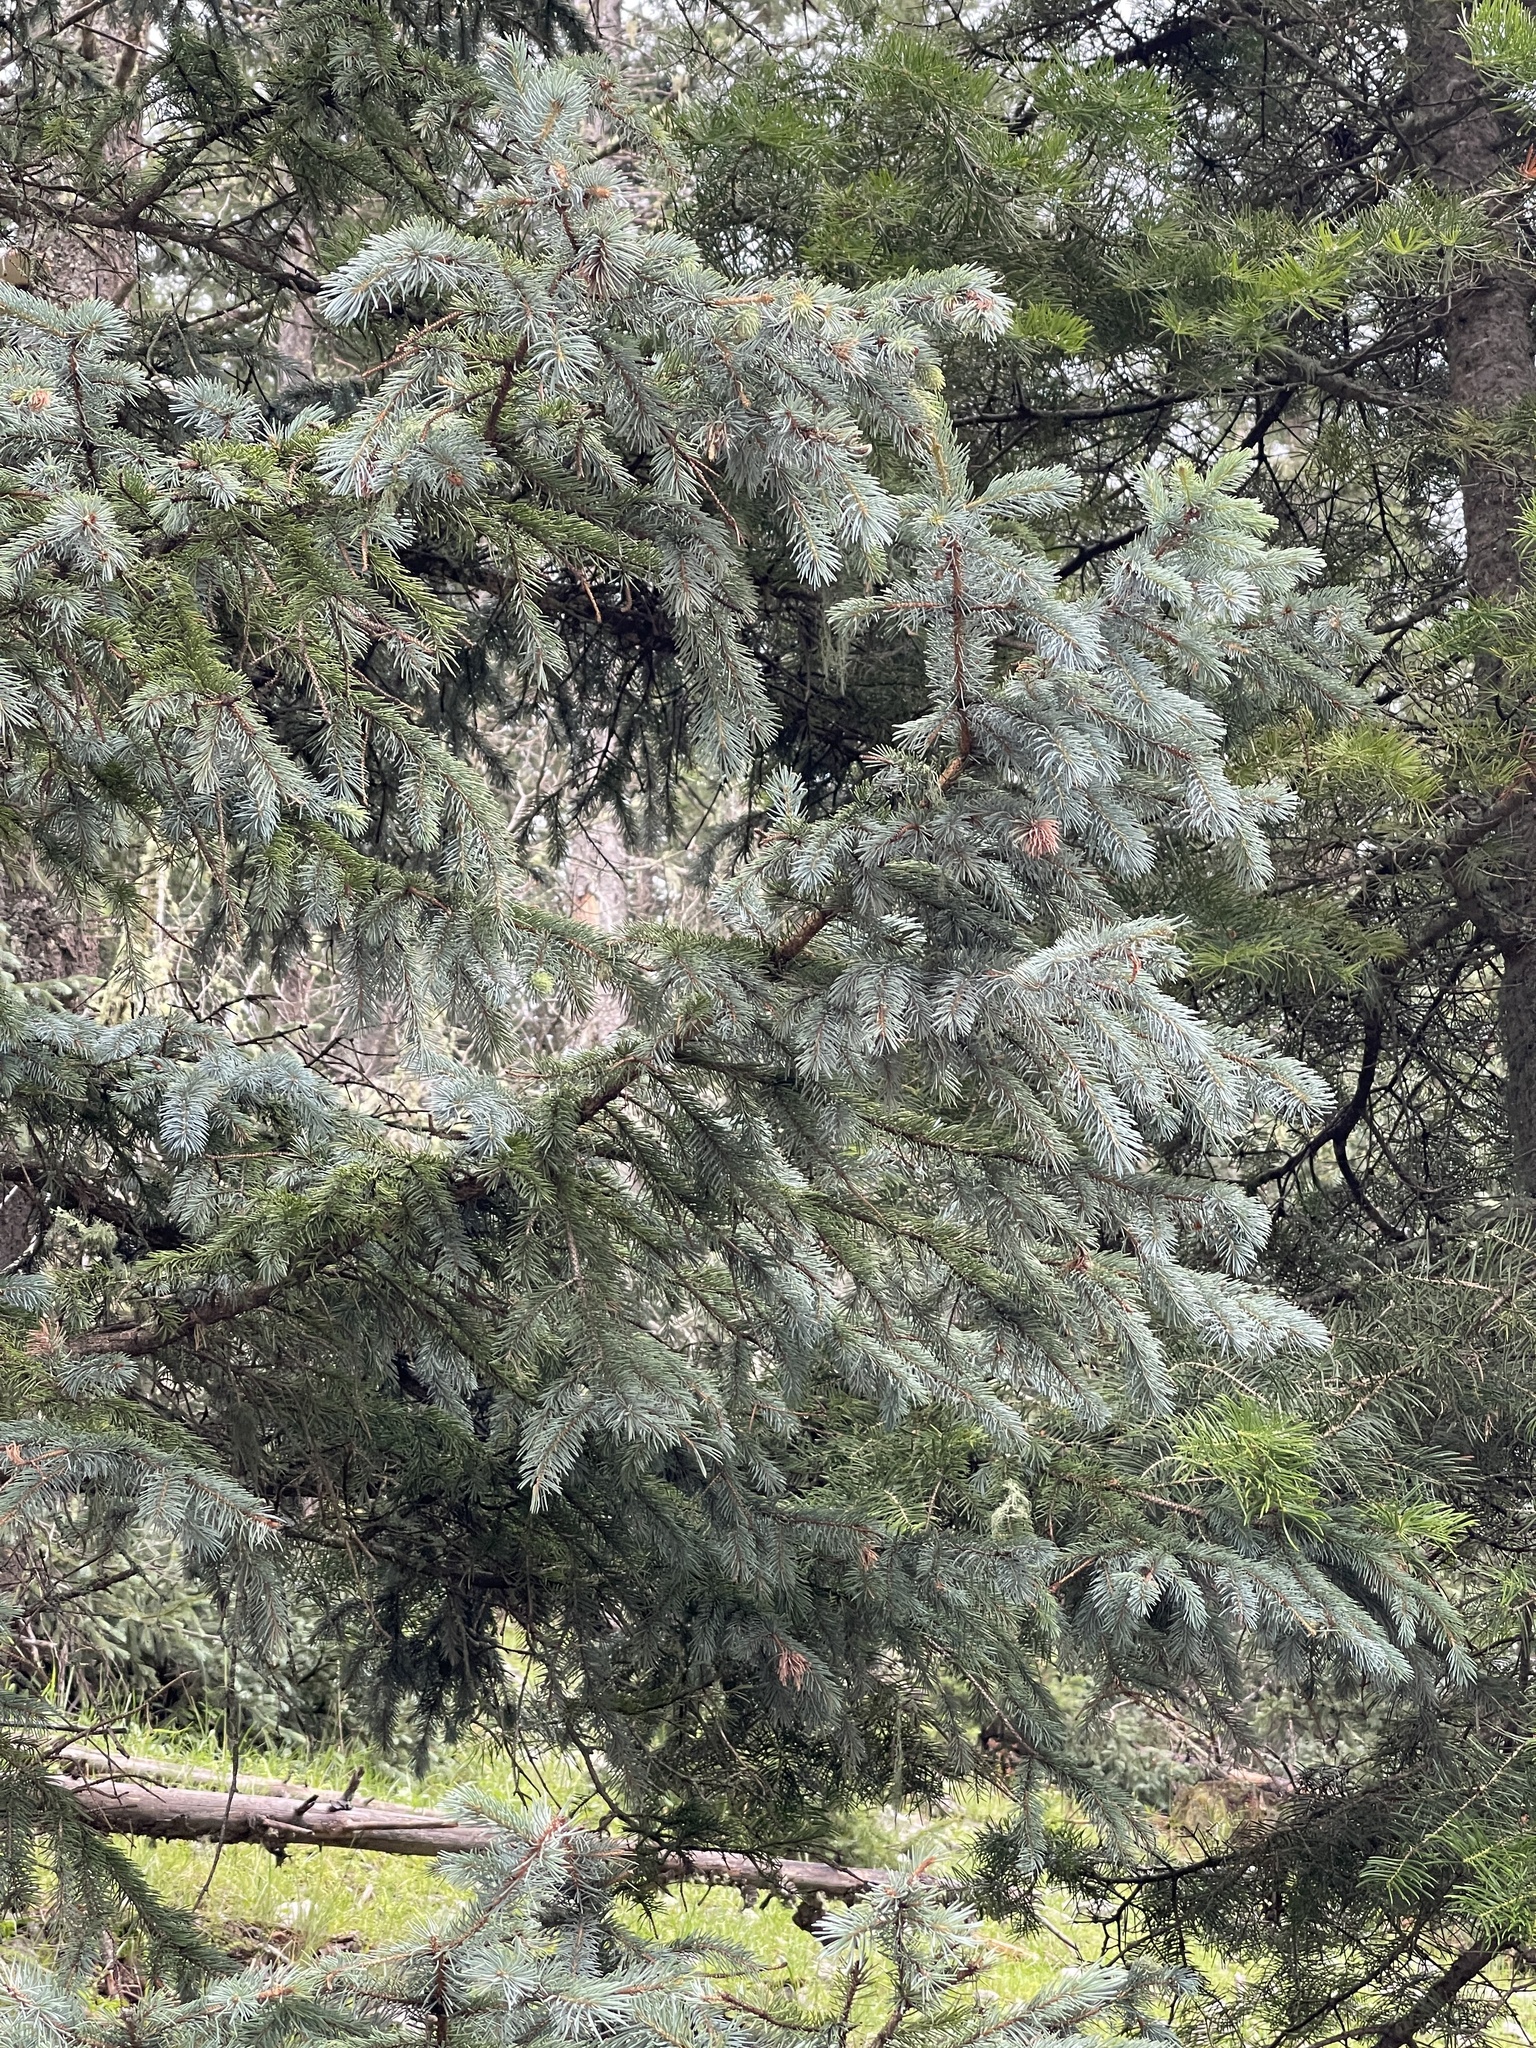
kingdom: Plantae
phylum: Tracheophyta
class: Pinopsida
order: Pinales
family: Pinaceae
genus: Picea
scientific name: Picea engelmannii
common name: Engelmann spruce
